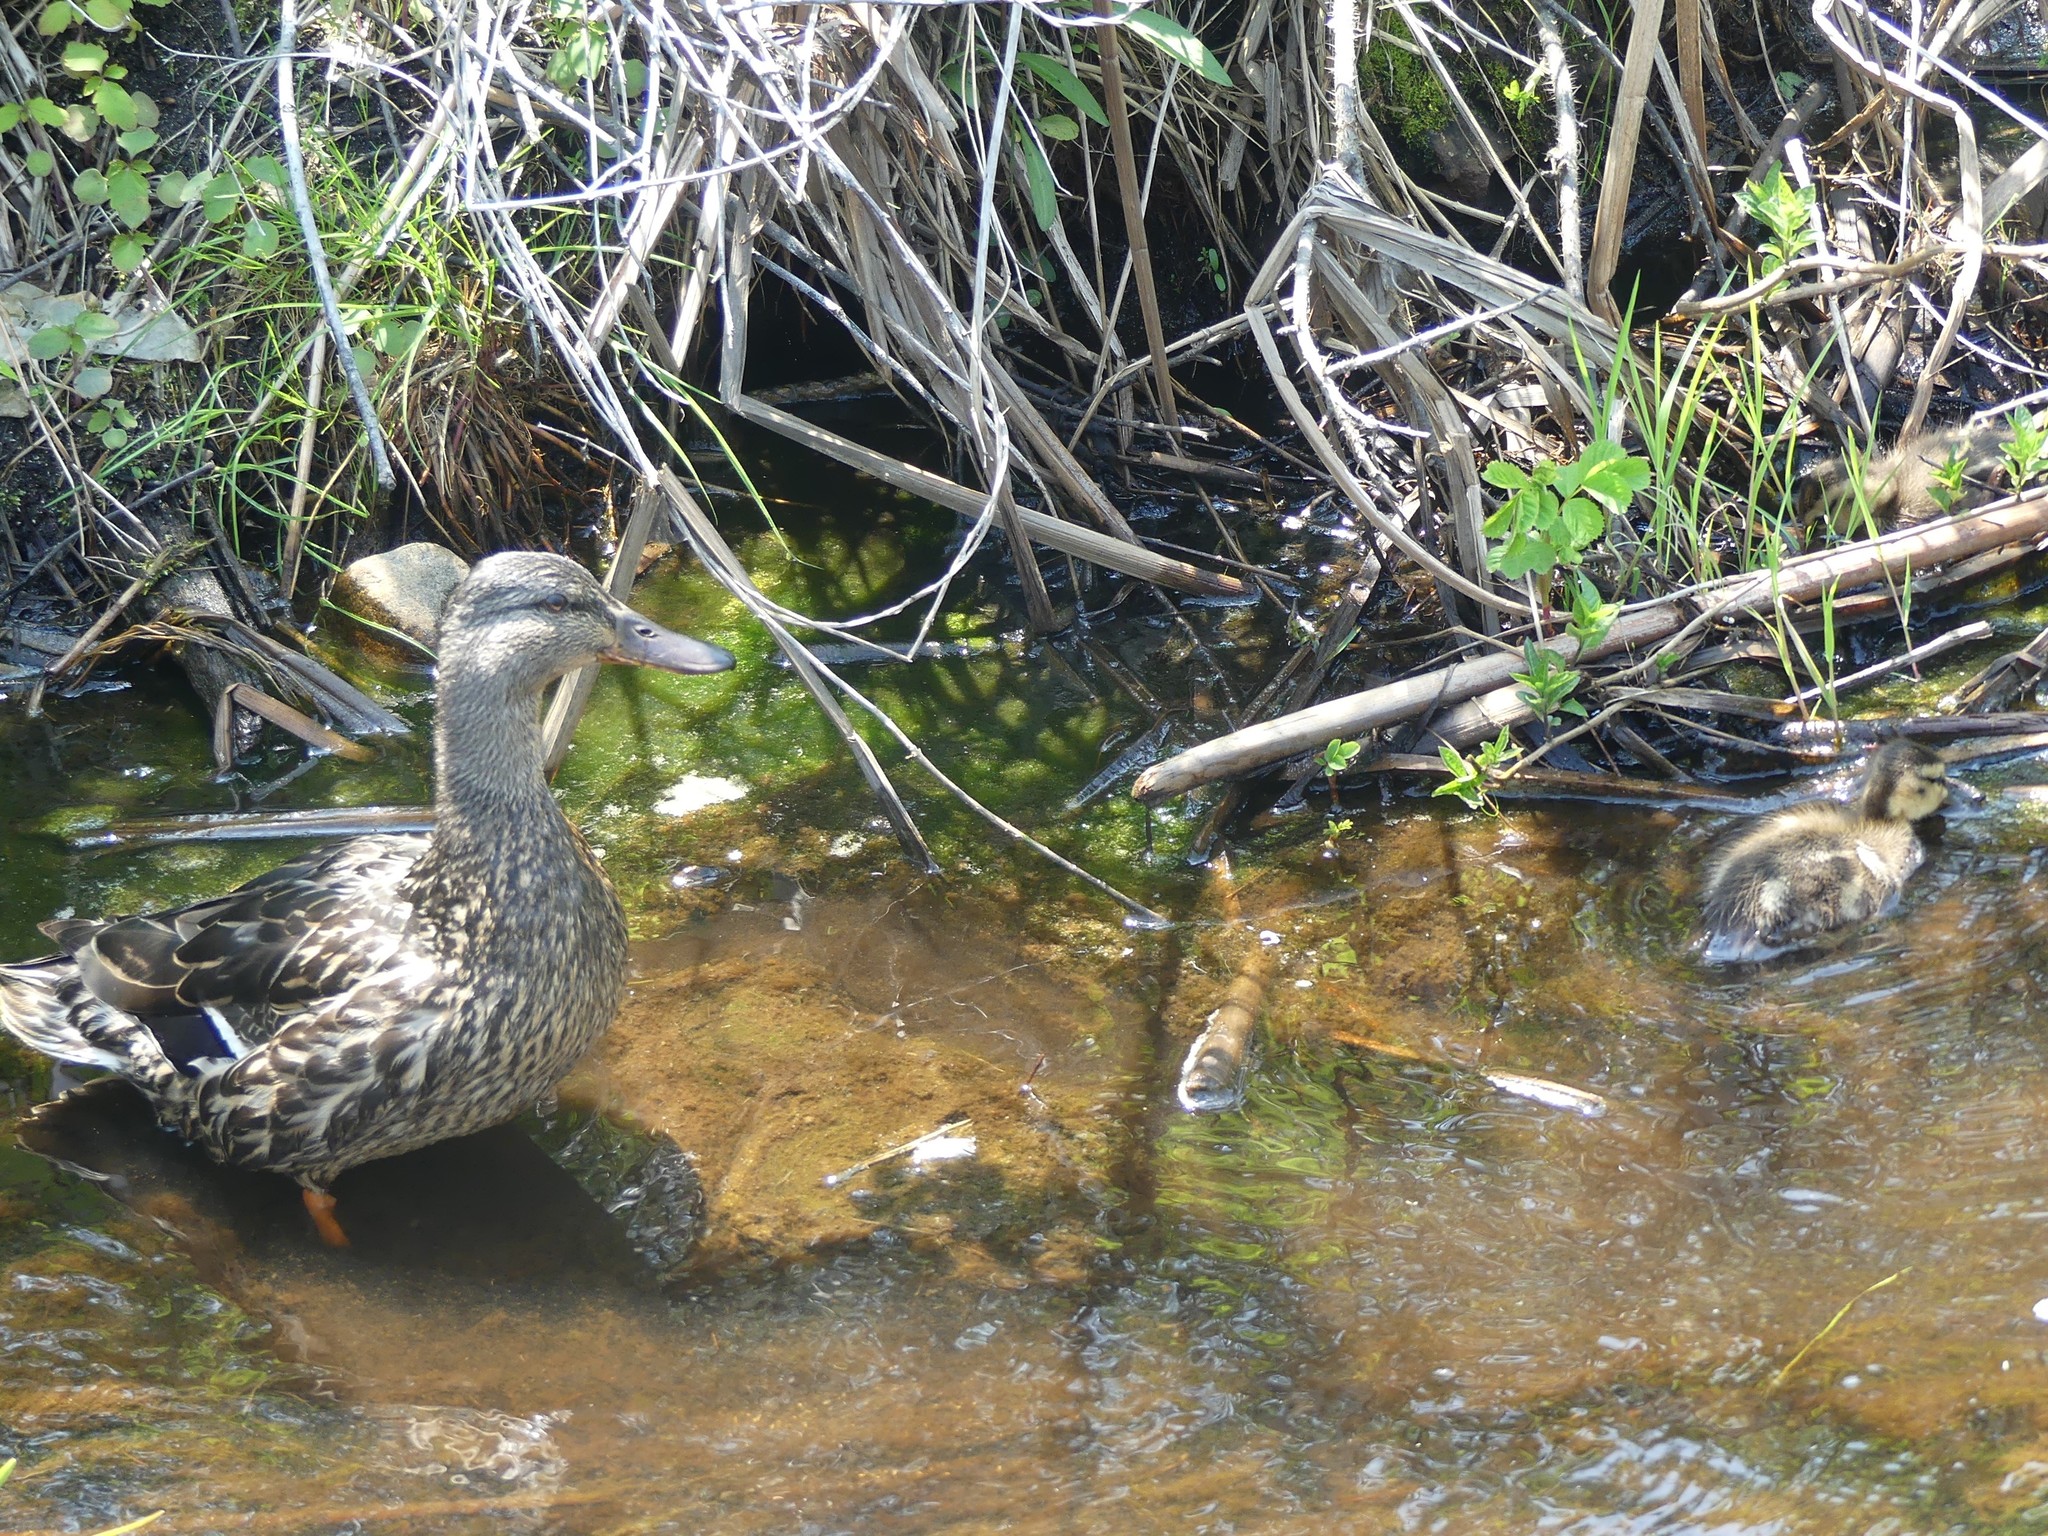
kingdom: Animalia
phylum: Chordata
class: Aves
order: Anseriformes
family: Anatidae
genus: Anas
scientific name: Anas platyrhynchos
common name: Mallard
